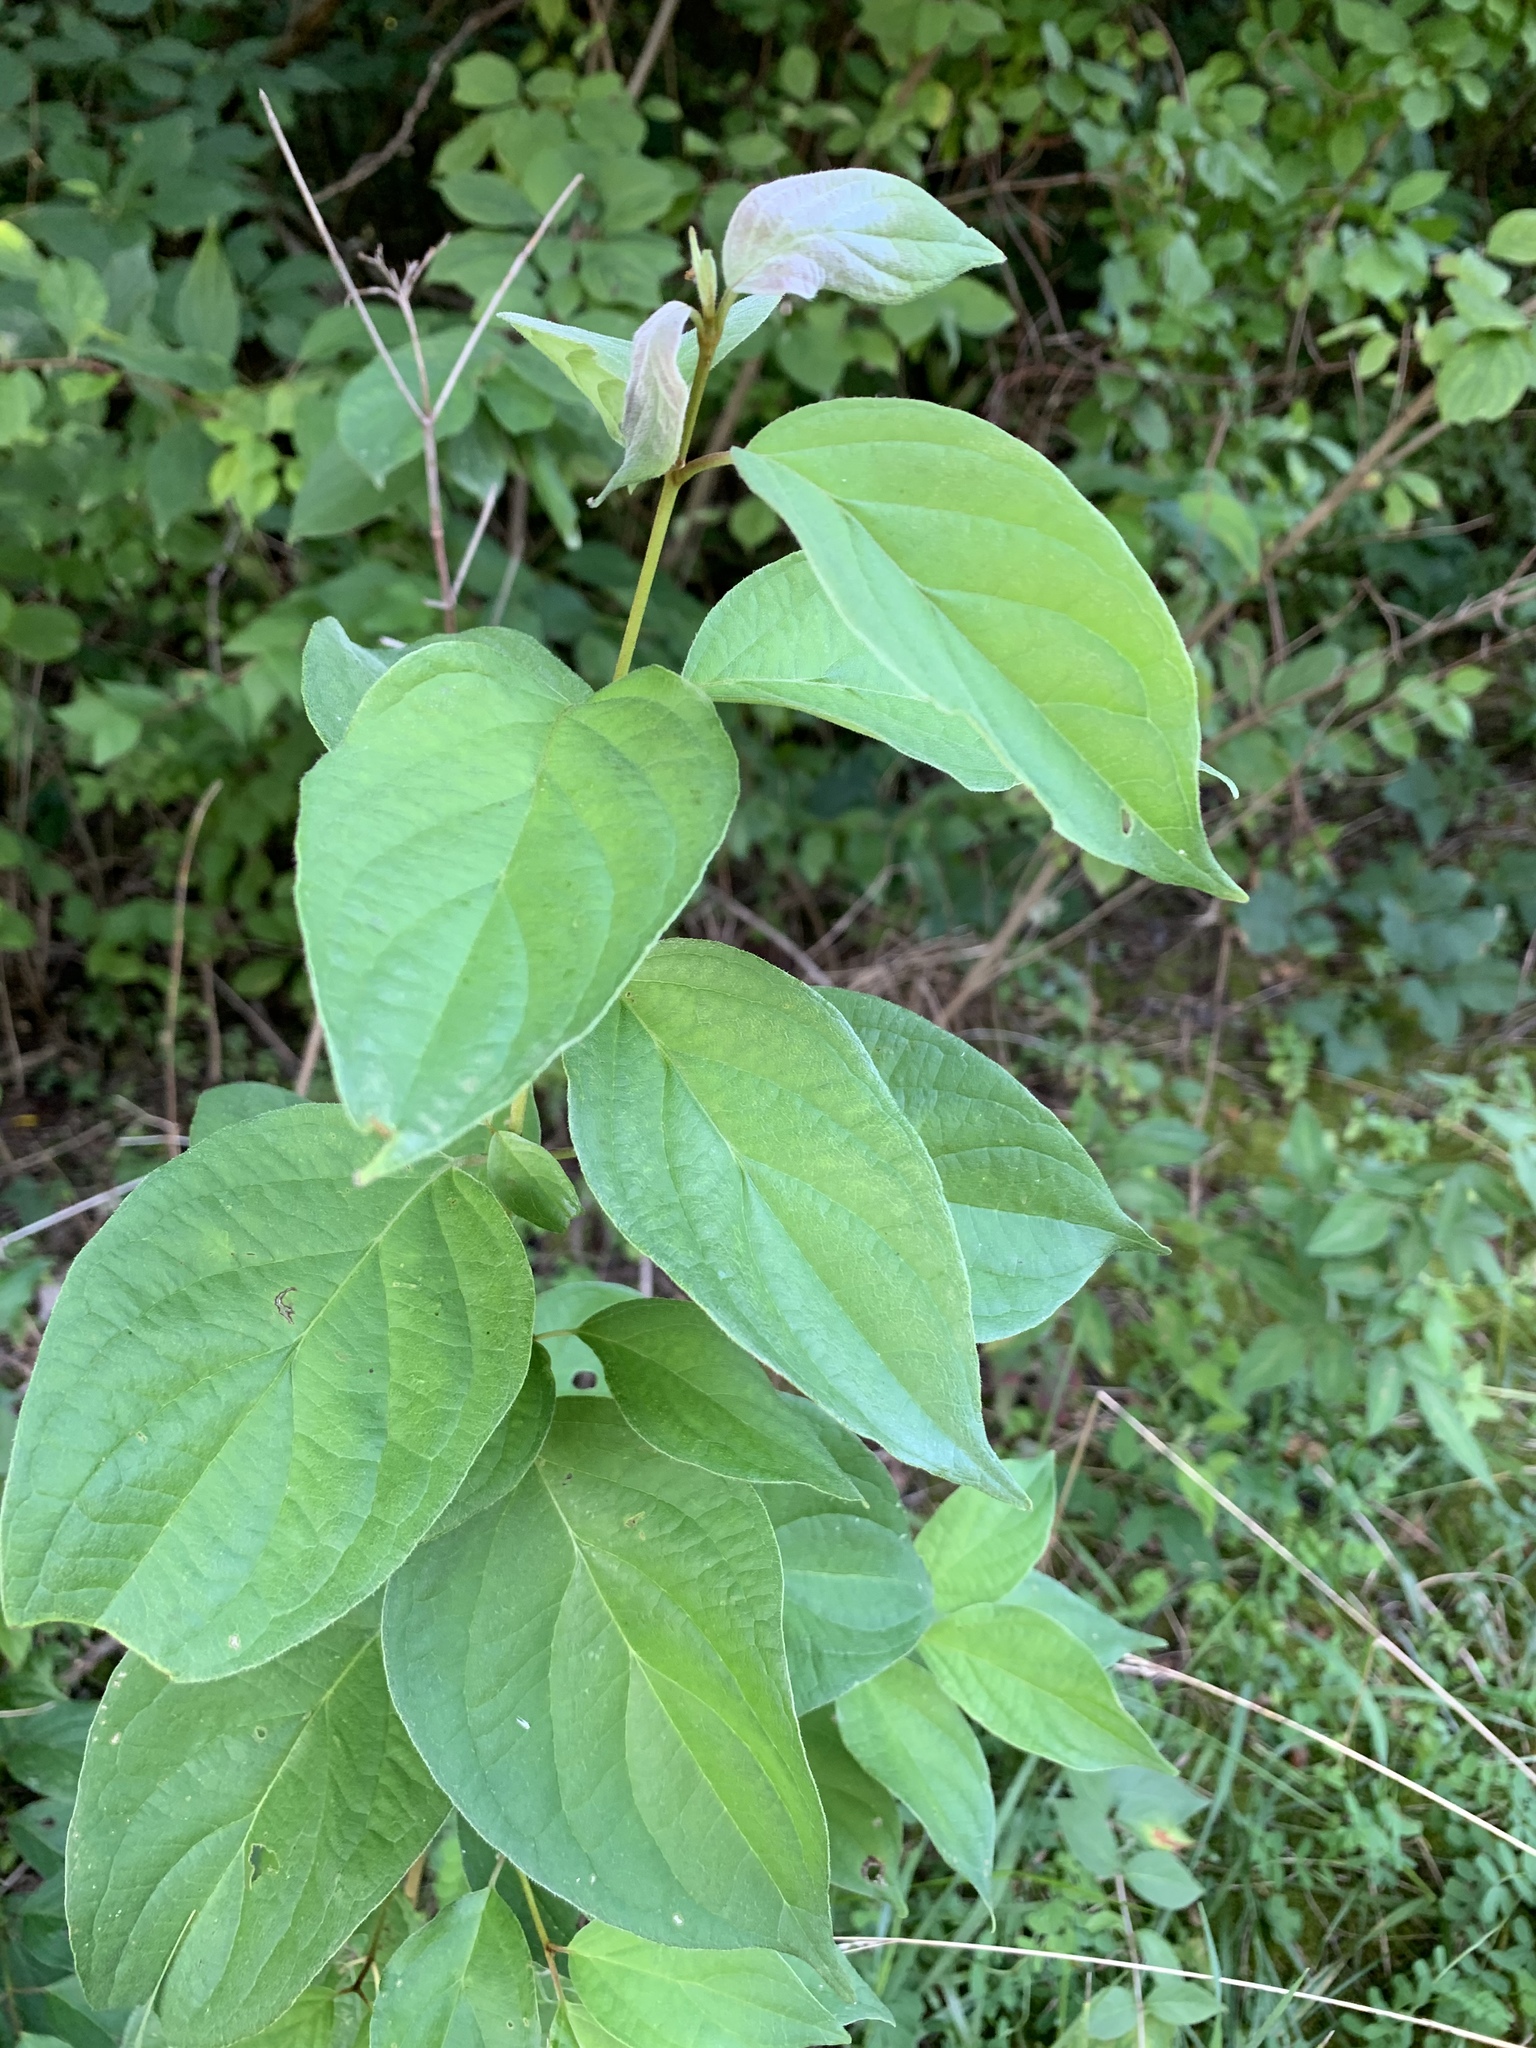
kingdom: Plantae
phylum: Tracheophyta
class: Magnoliopsida
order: Cornales
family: Cornaceae
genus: Cornus
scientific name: Cornus drummondii
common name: Rough-leaf dogwood
